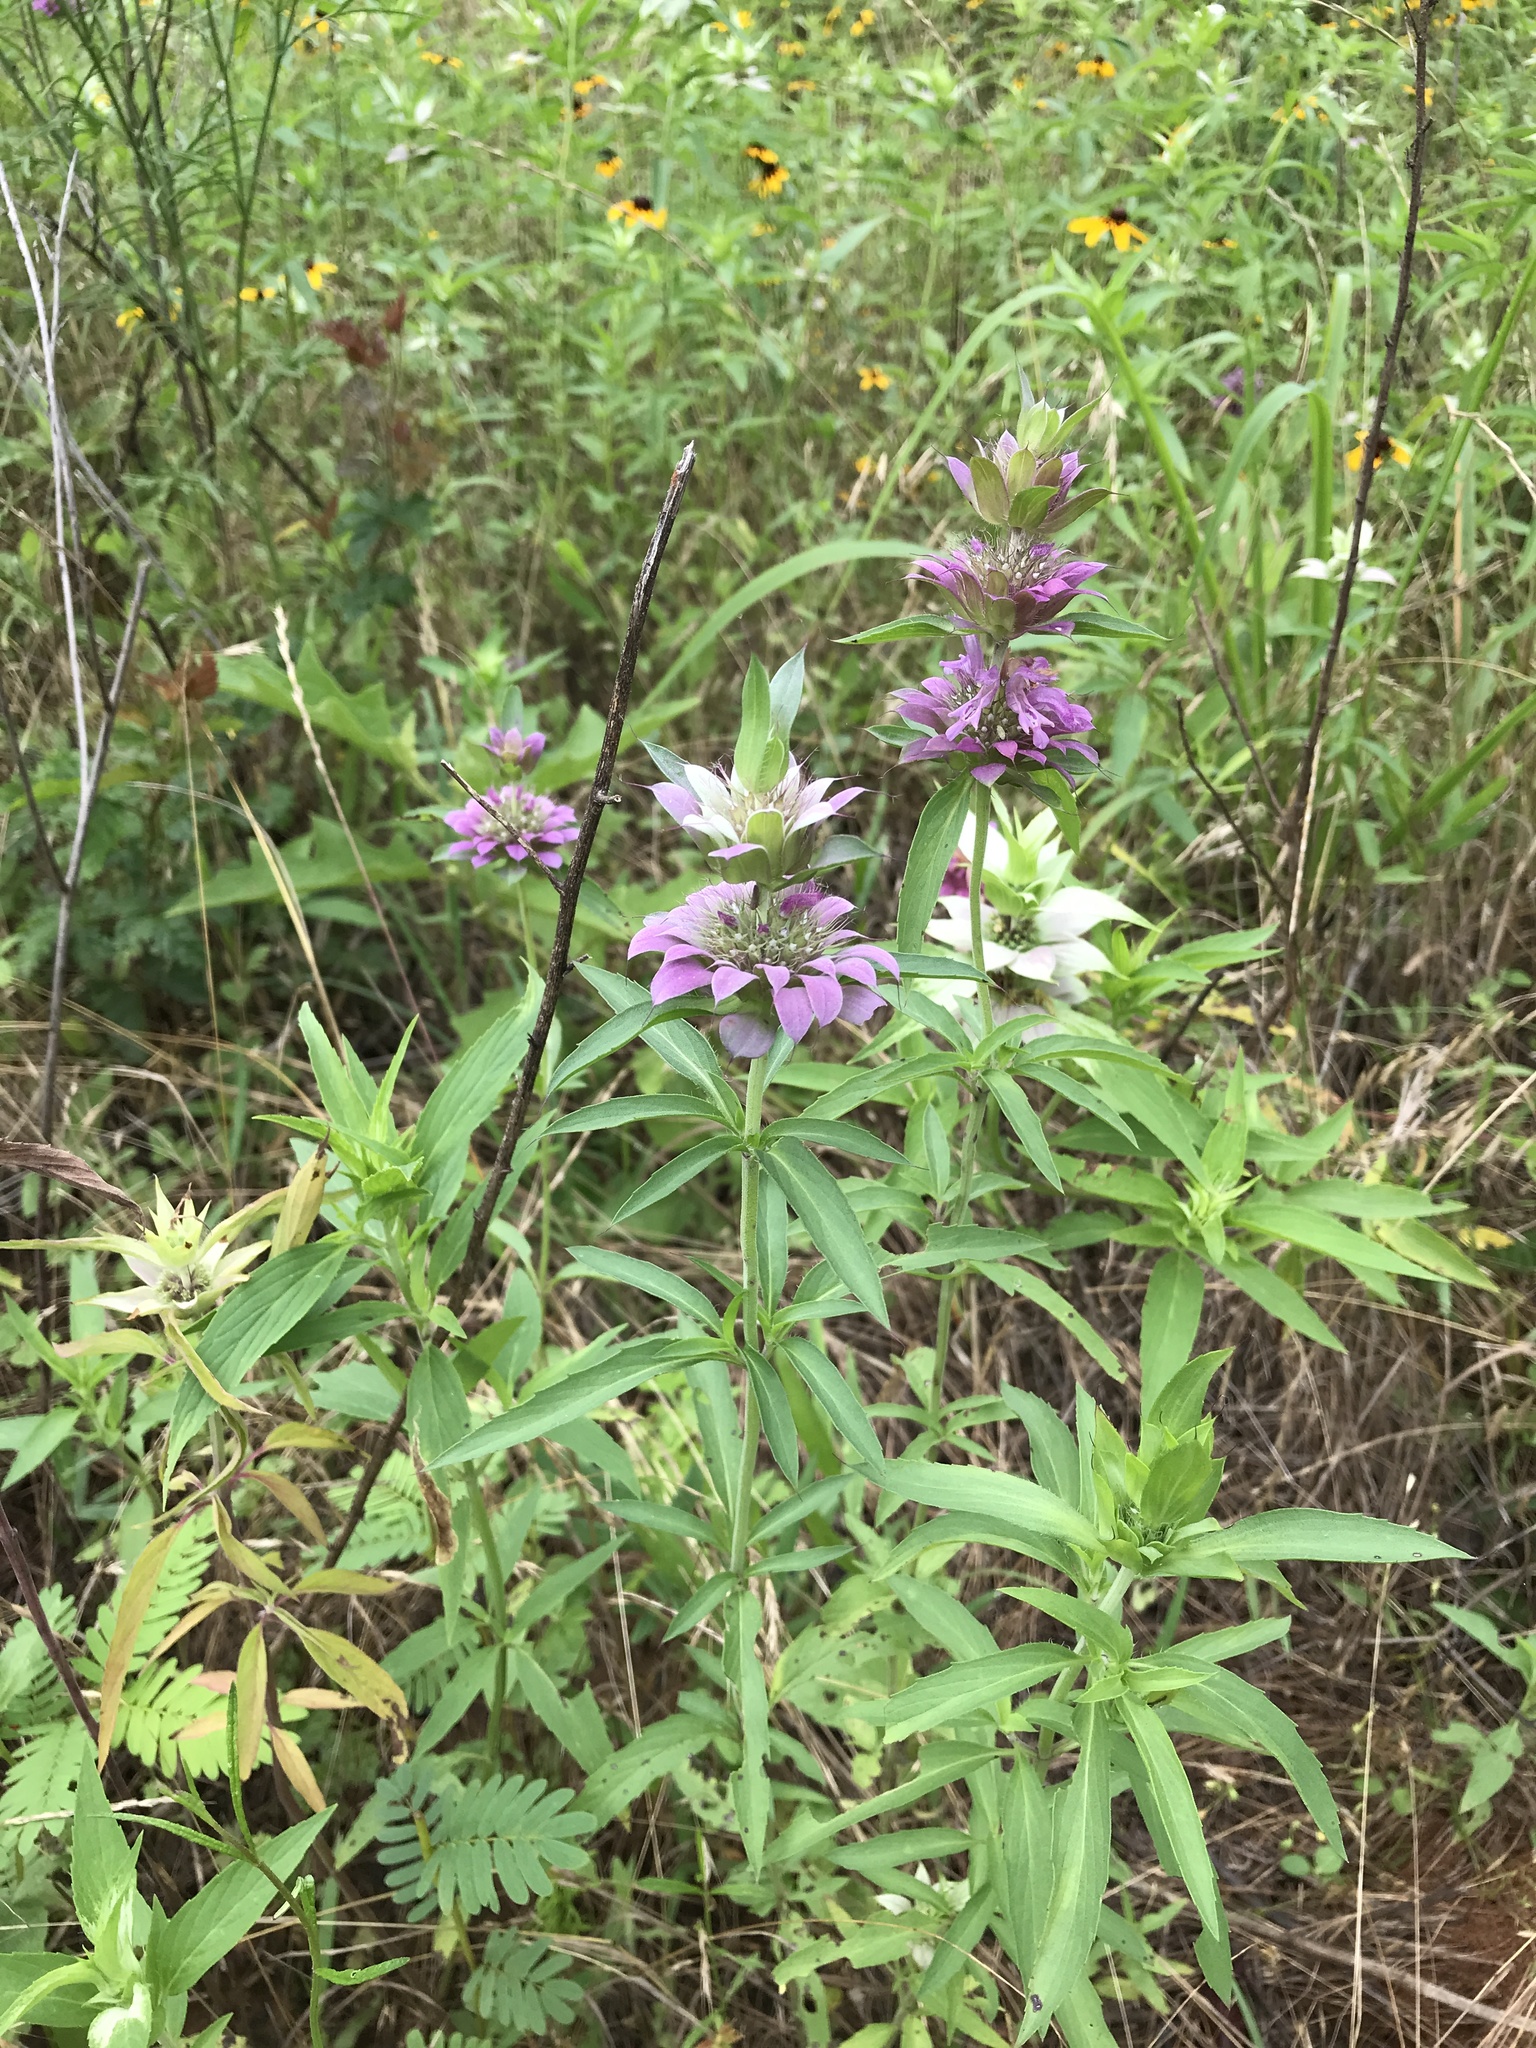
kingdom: Plantae
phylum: Tracheophyta
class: Magnoliopsida
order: Lamiales
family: Lamiaceae
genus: Monarda
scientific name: Monarda citriodora
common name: Lemon beebalm
